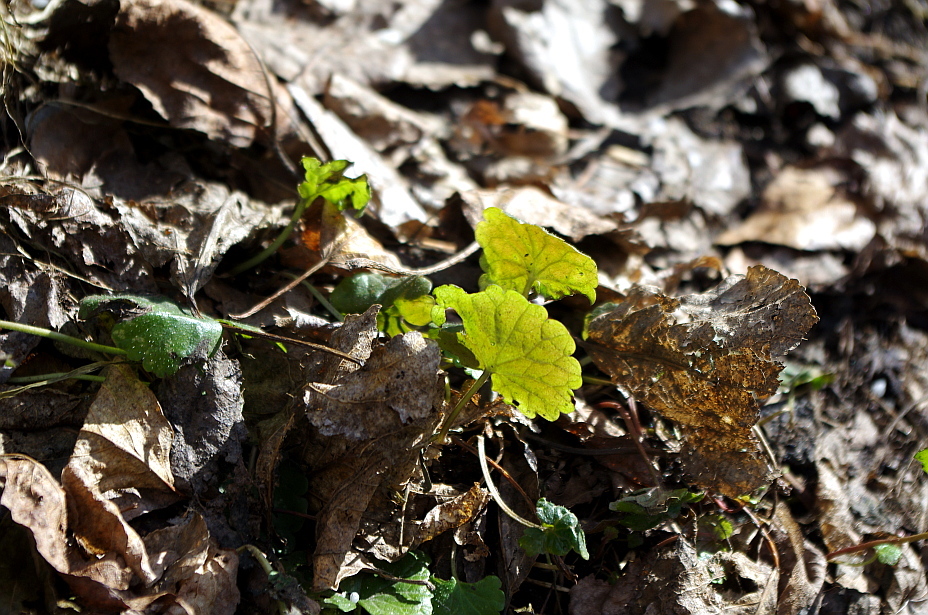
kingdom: Plantae
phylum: Tracheophyta
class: Magnoliopsida
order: Lamiales
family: Lamiaceae
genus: Glechoma
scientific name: Glechoma hederacea
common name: Ground ivy
